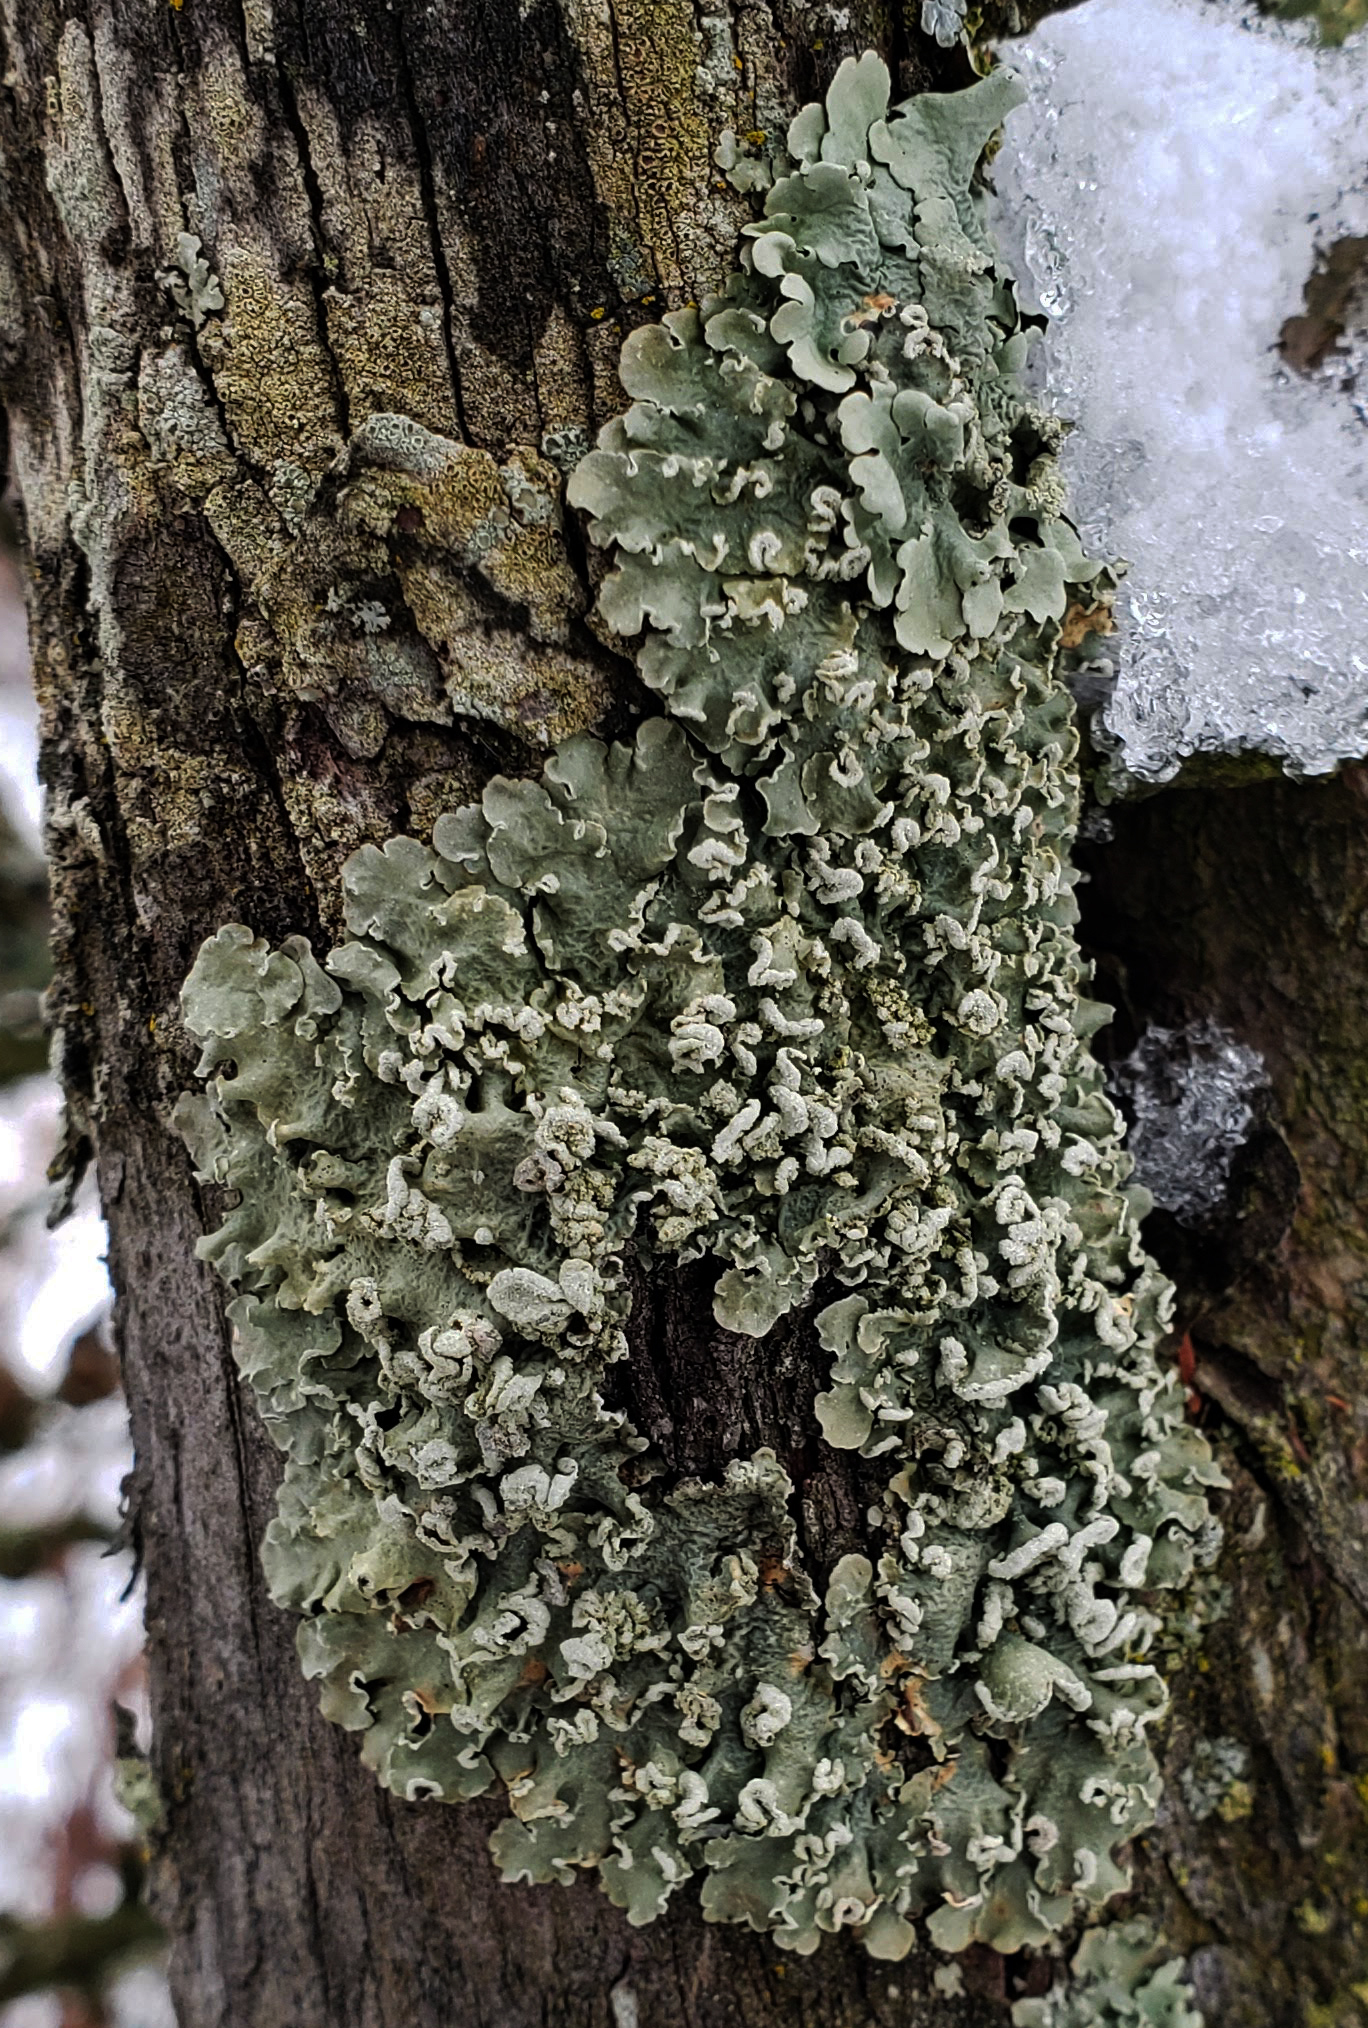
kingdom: Fungi
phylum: Ascomycota
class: Lecanoromycetes
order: Lecanorales
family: Parmeliaceae
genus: Flavopunctelia
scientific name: Flavopunctelia soredica
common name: Powder-edged speckled greenshield
